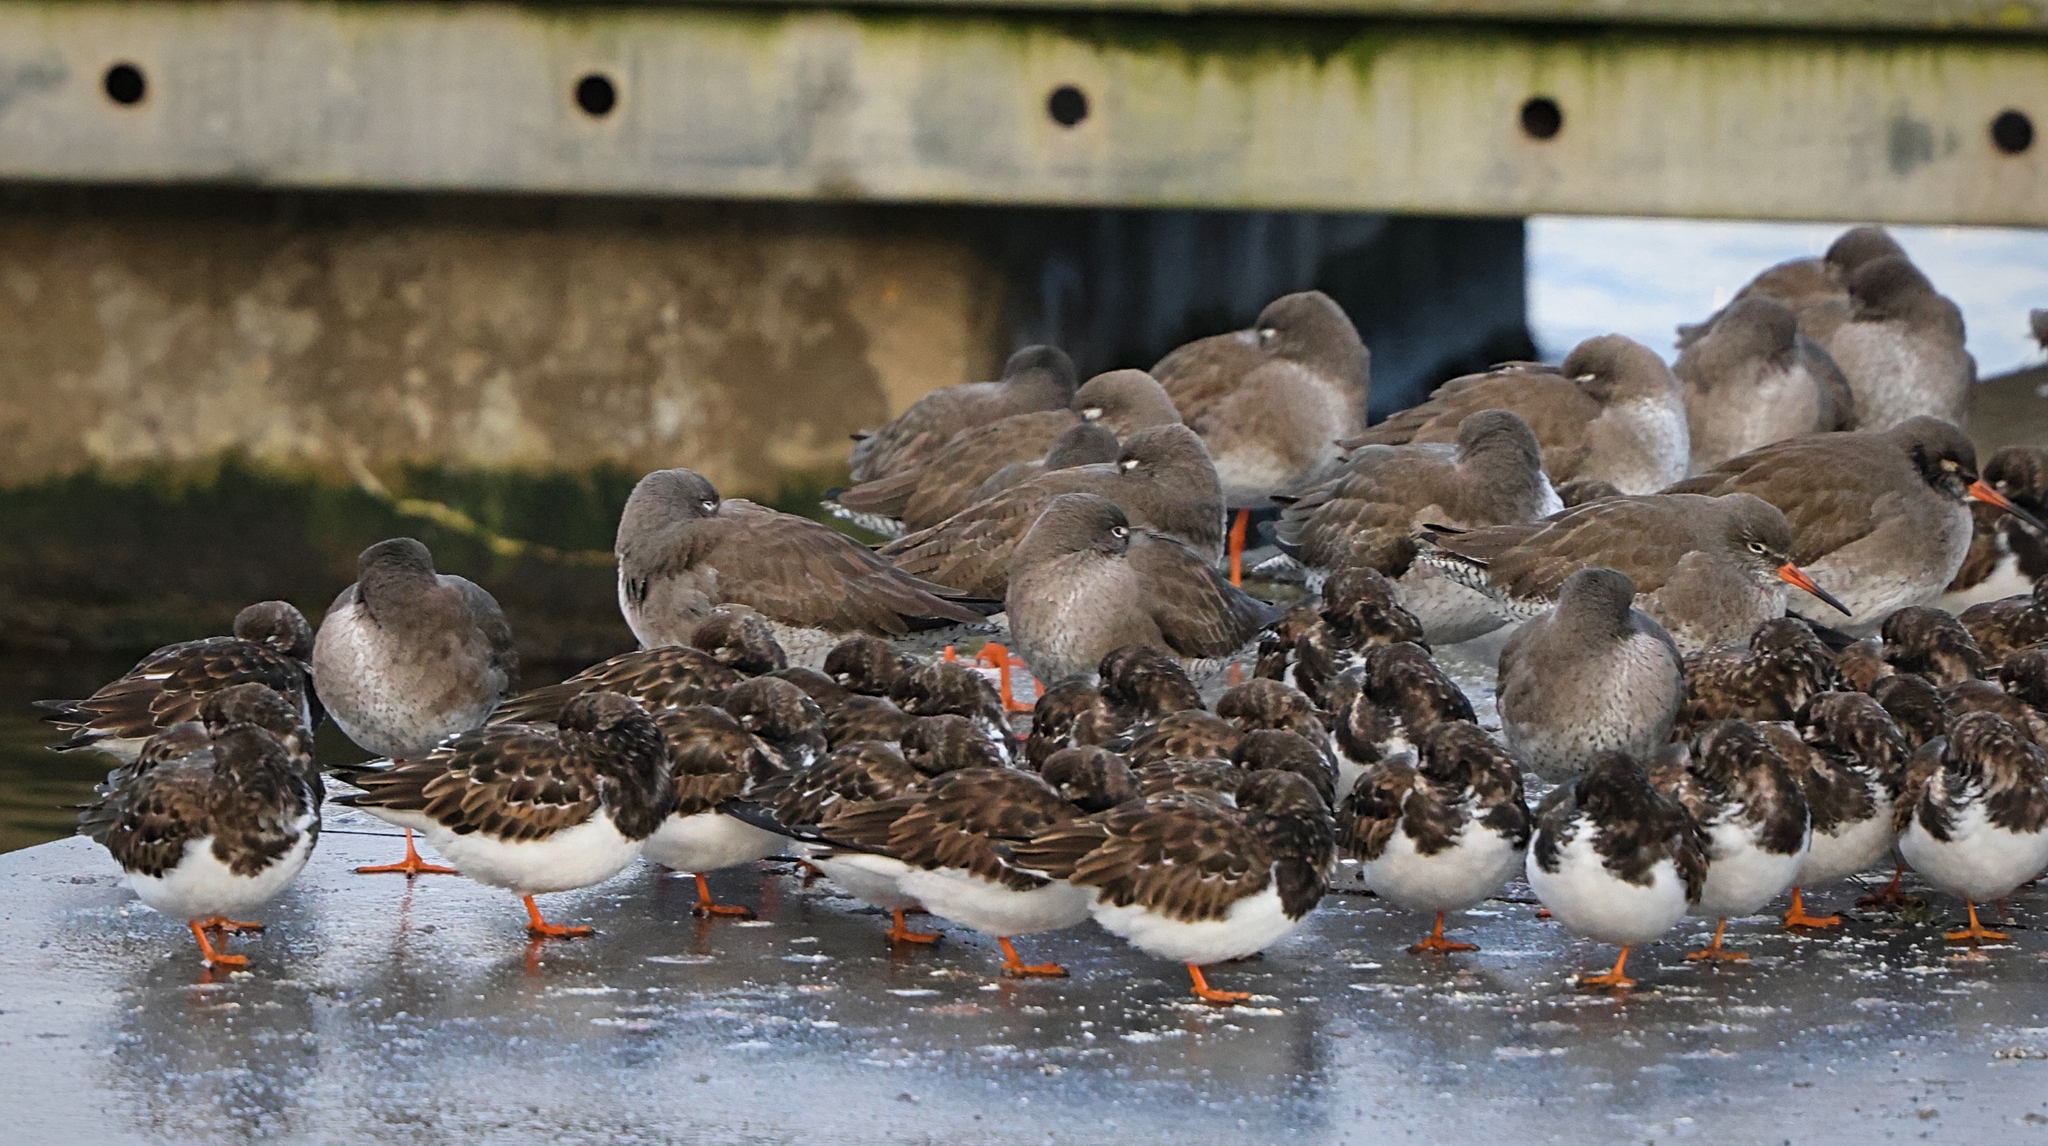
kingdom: Animalia
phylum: Chordata
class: Aves
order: Charadriiformes
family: Scolopacidae
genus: Arenaria
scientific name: Arenaria interpres
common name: Ruddy turnstone
